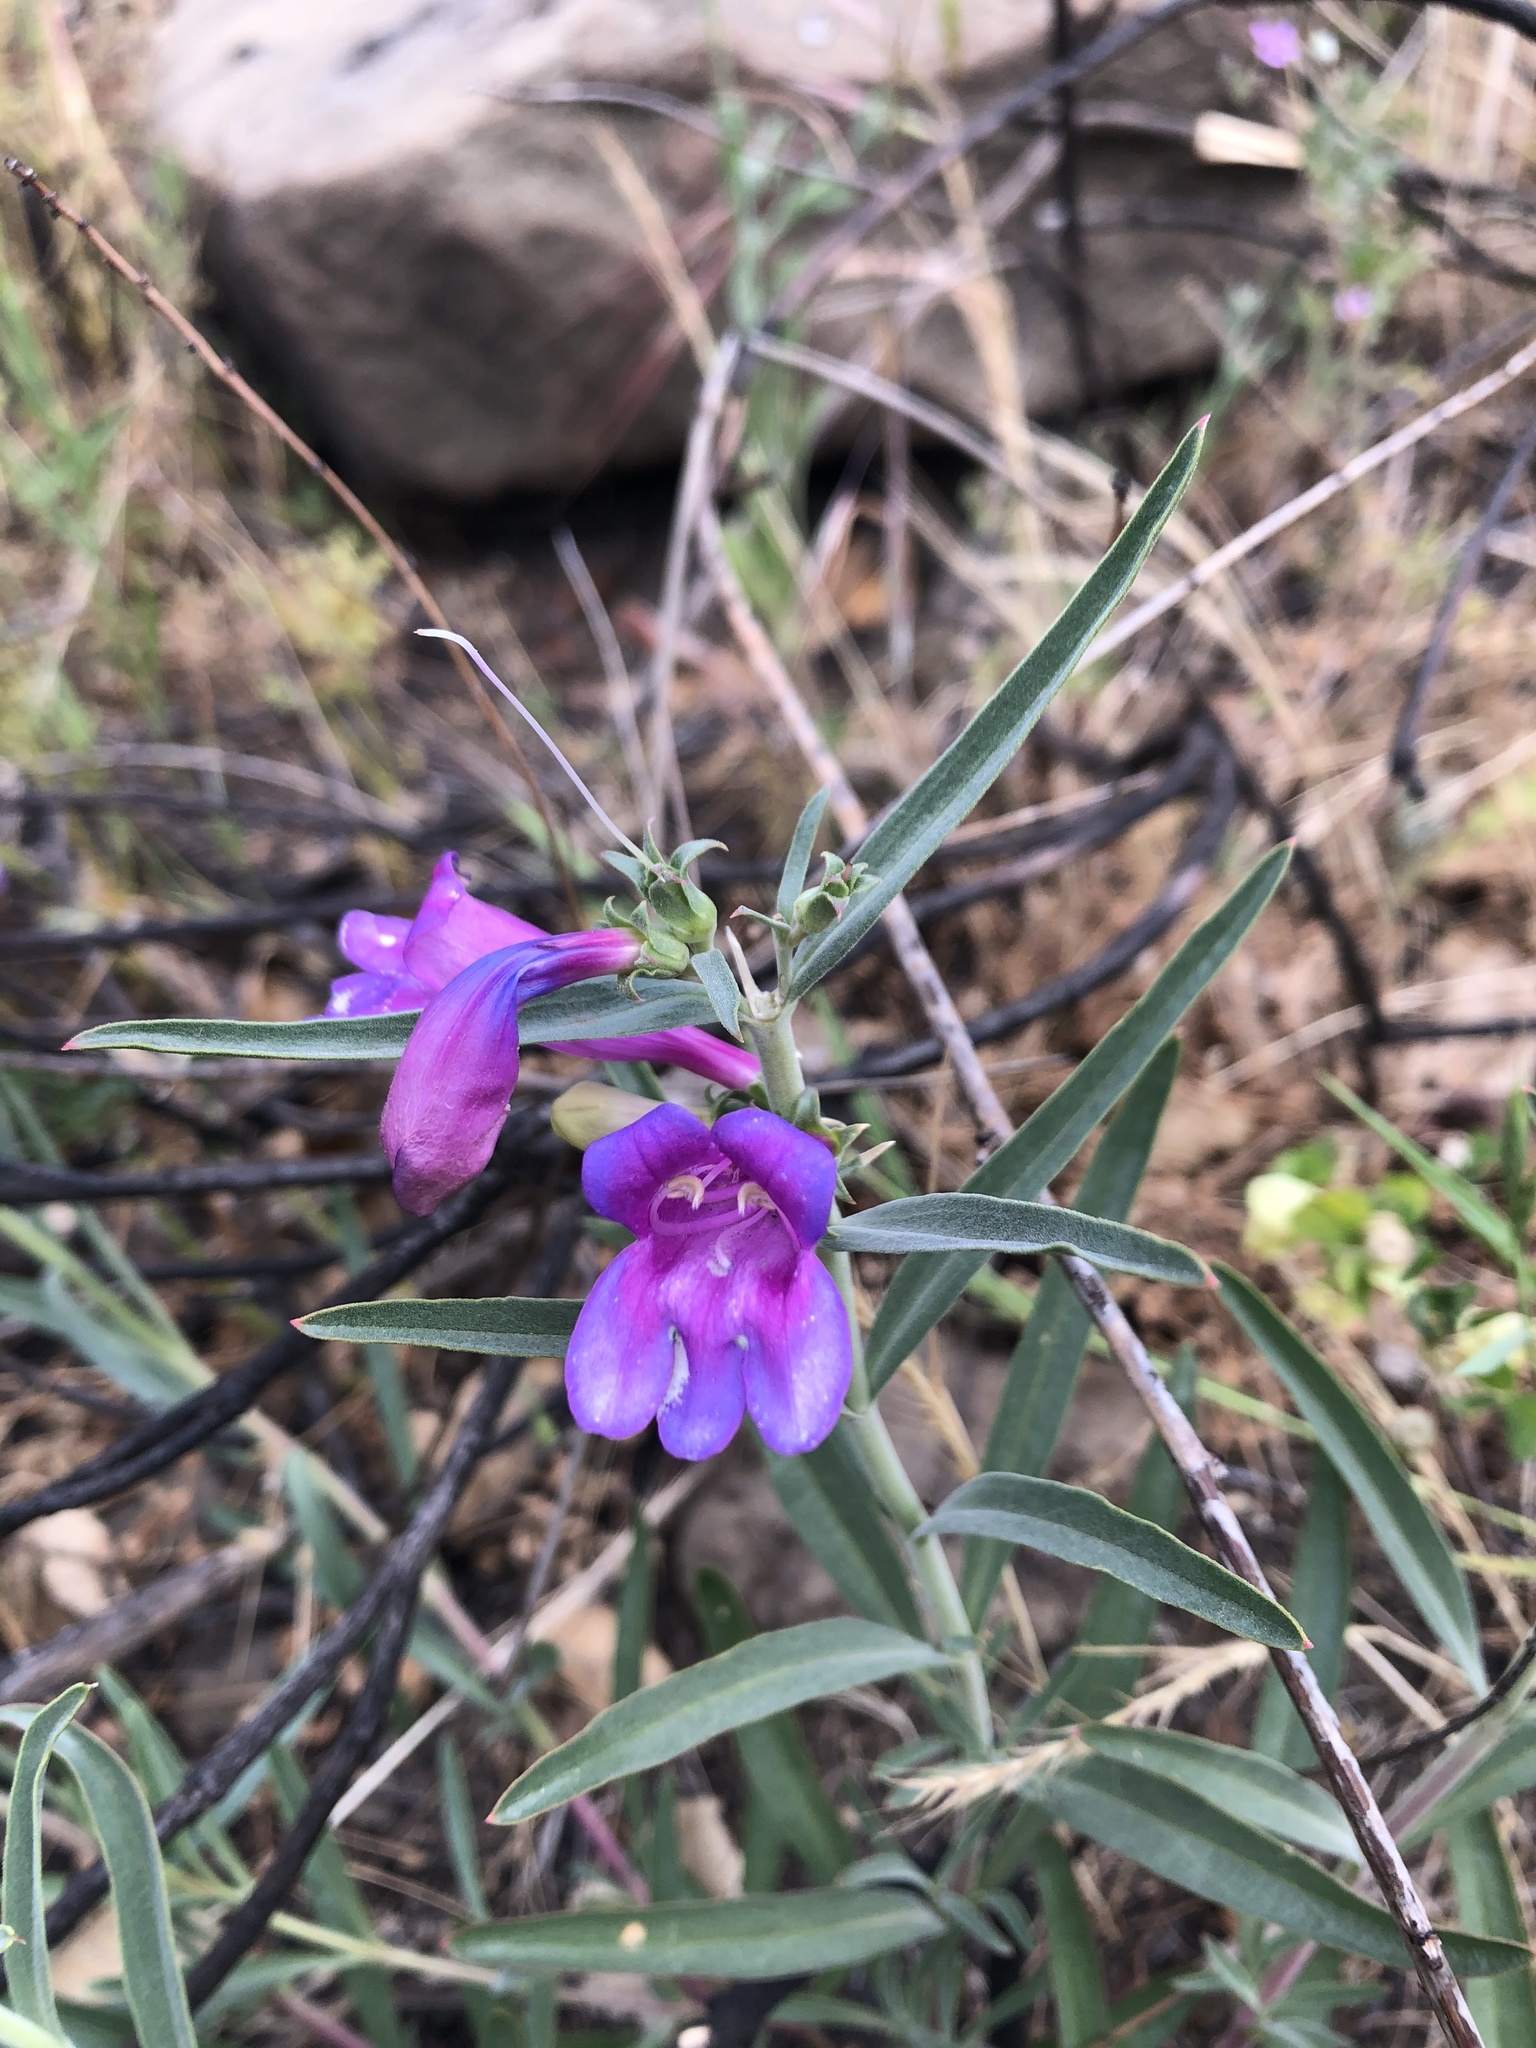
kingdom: Plantae
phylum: Tracheophyta
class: Magnoliopsida
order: Lamiales
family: Plantaginaceae
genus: Penstemon
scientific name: Penstemon heterophyllus
